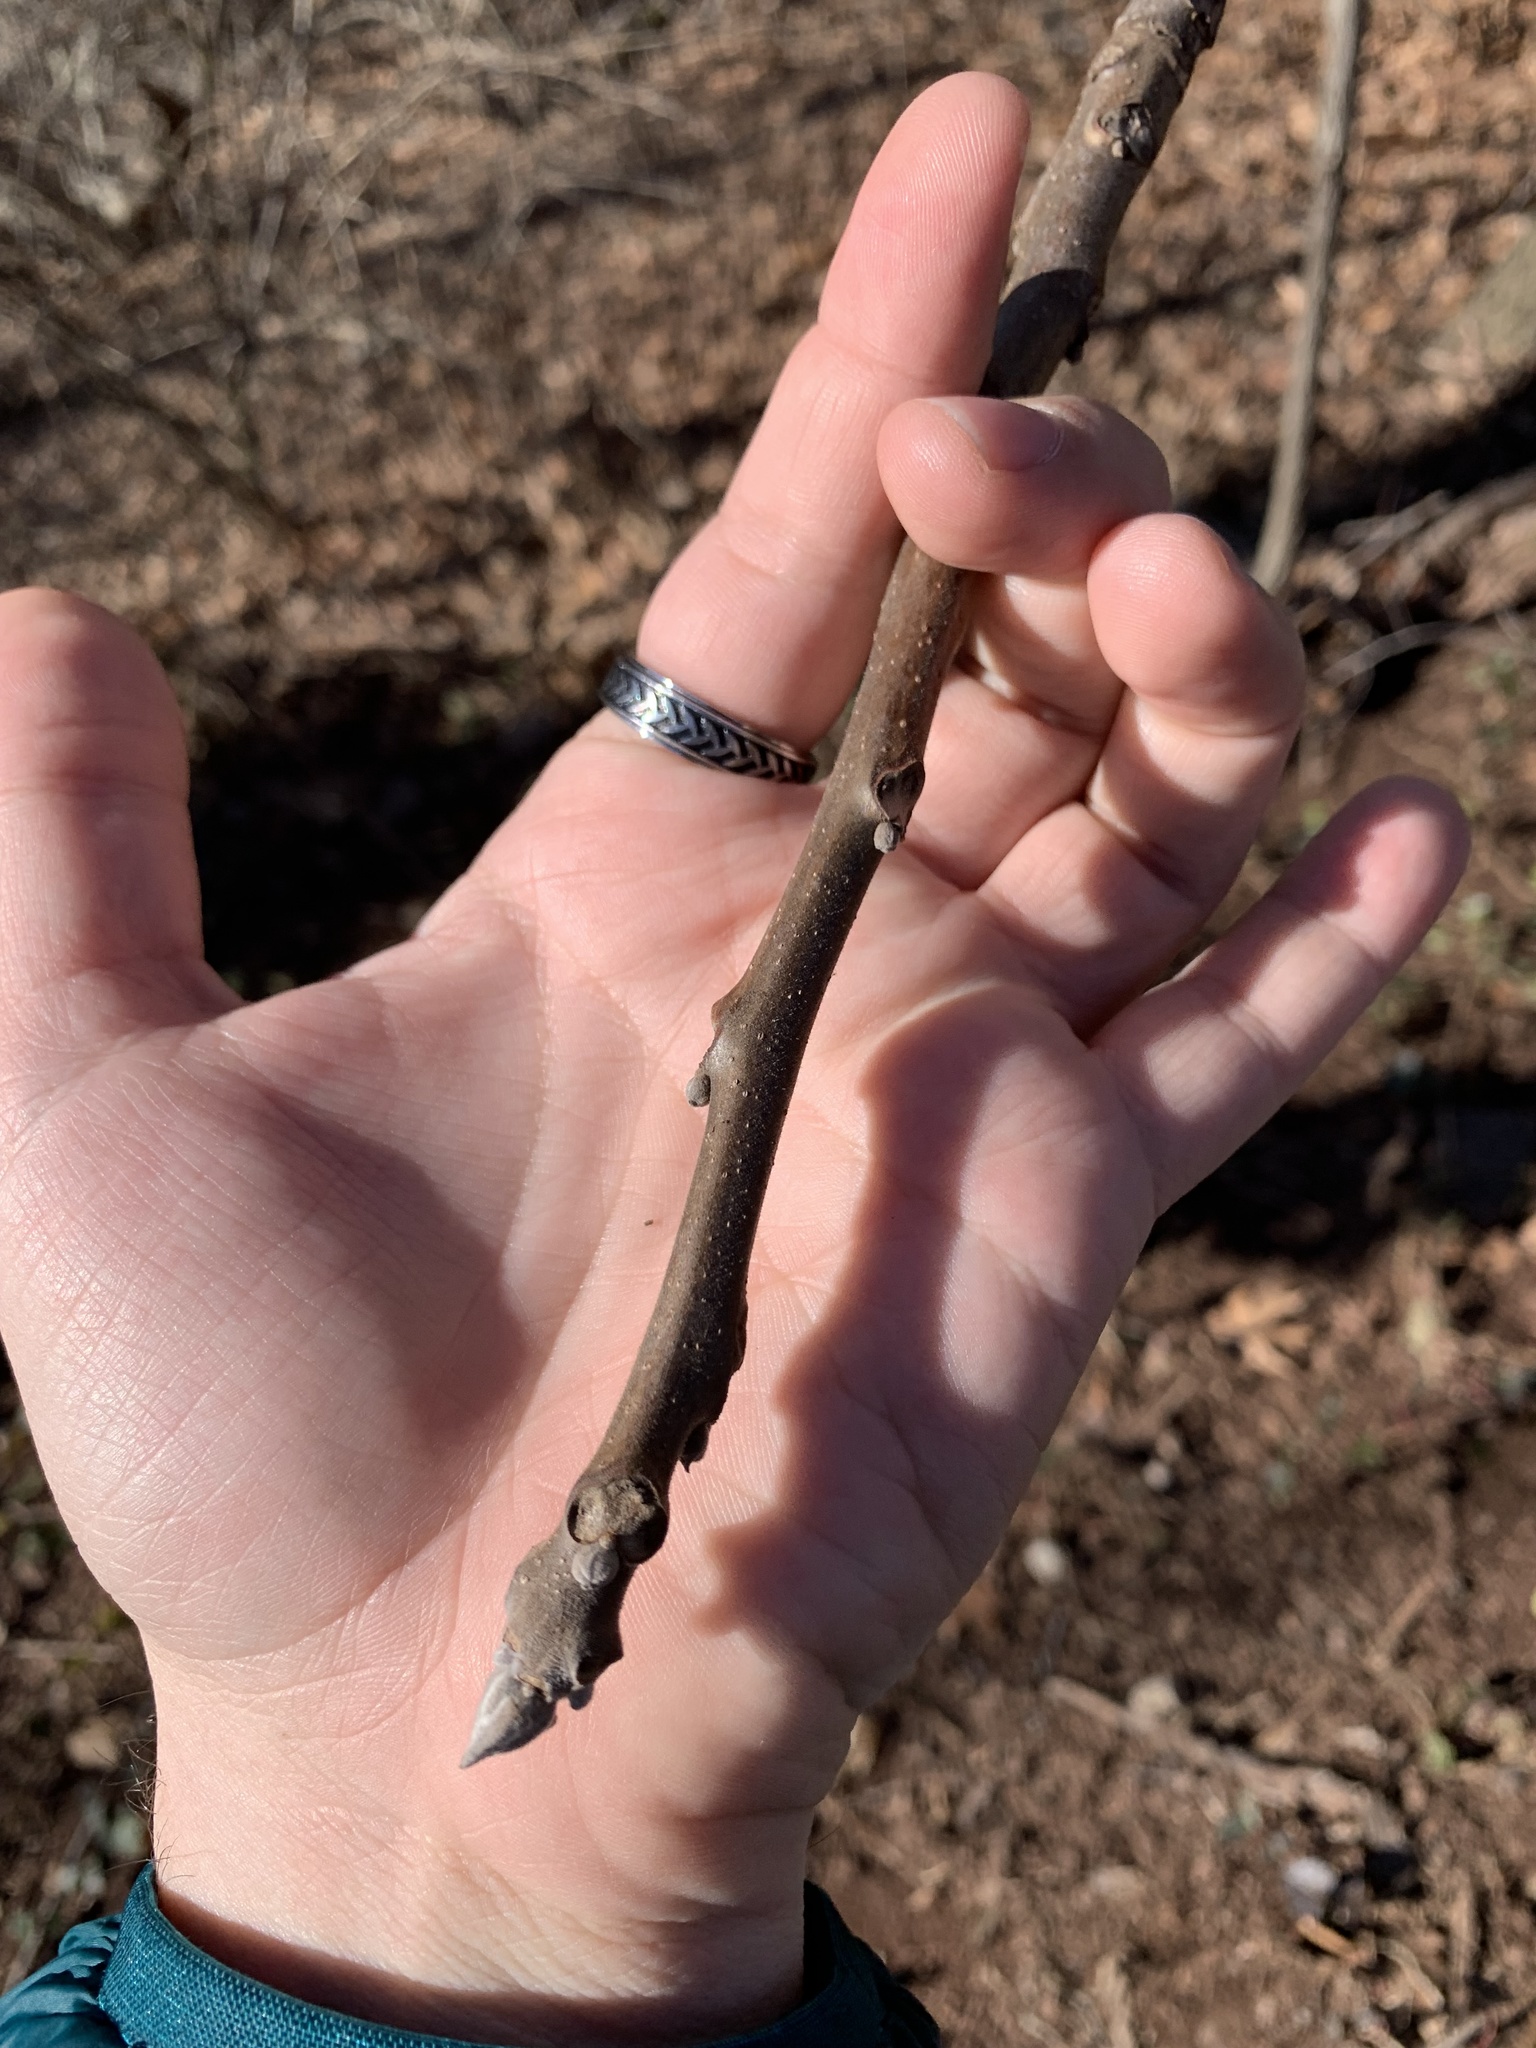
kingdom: Plantae
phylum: Tracheophyta
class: Magnoliopsida
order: Fagales
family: Juglandaceae
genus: Juglans
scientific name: Juglans nigra
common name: Black walnut
